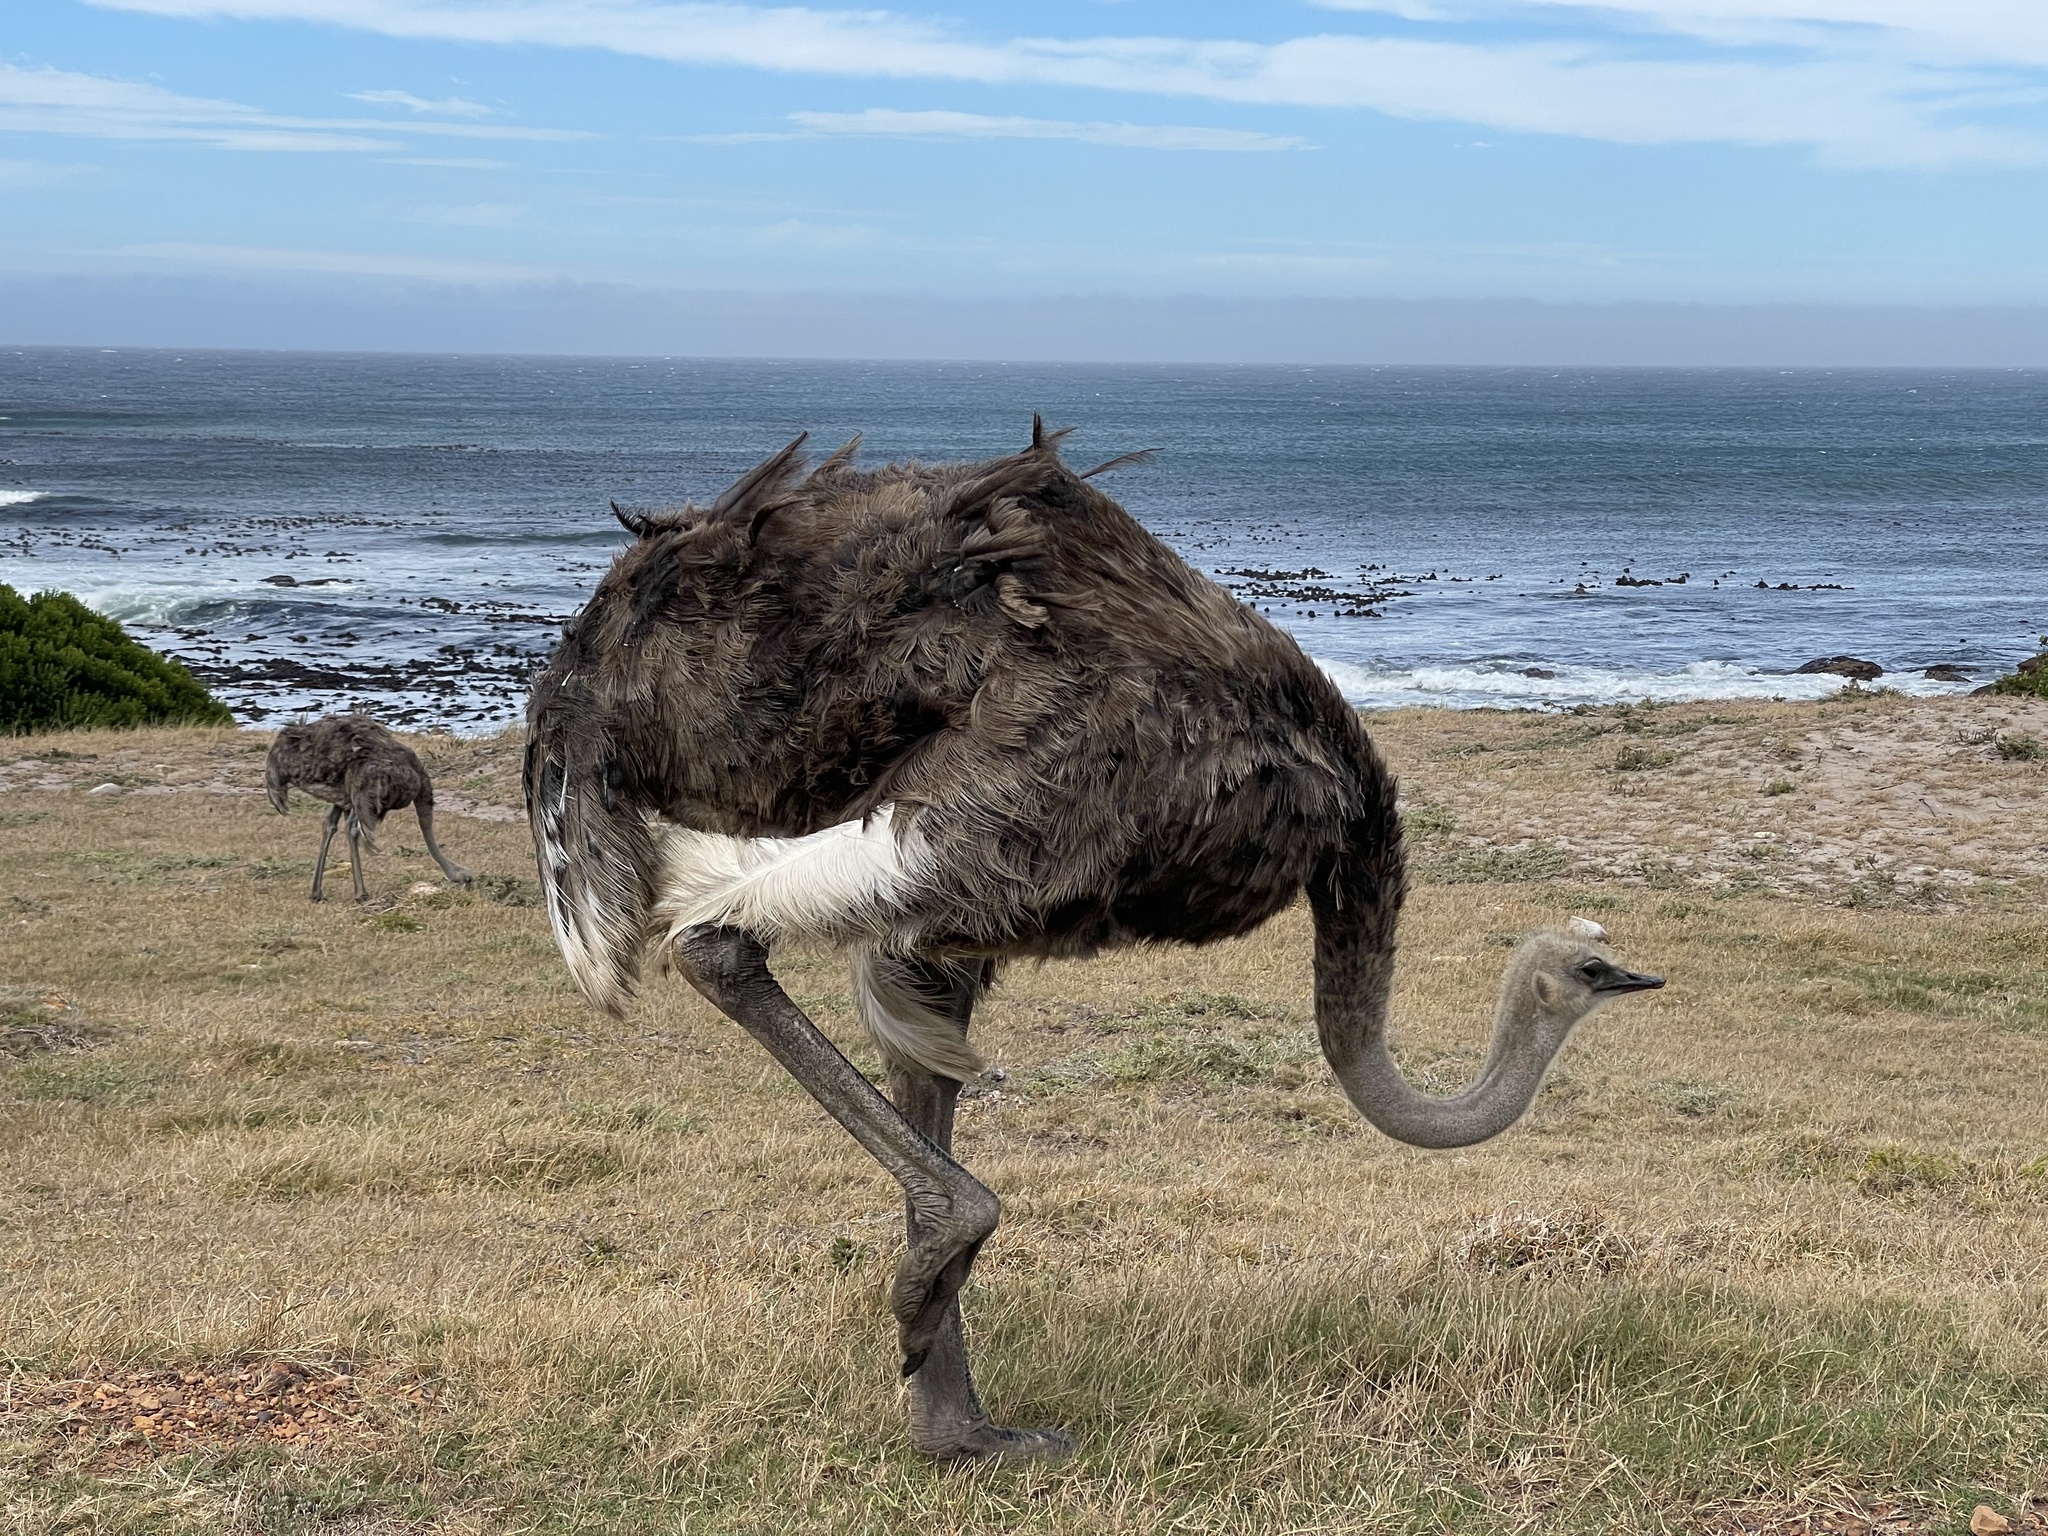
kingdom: Animalia
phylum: Chordata
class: Aves
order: Struthioniformes
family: Struthionidae
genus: Struthio
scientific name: Struthio camelus
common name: Common ostrich
